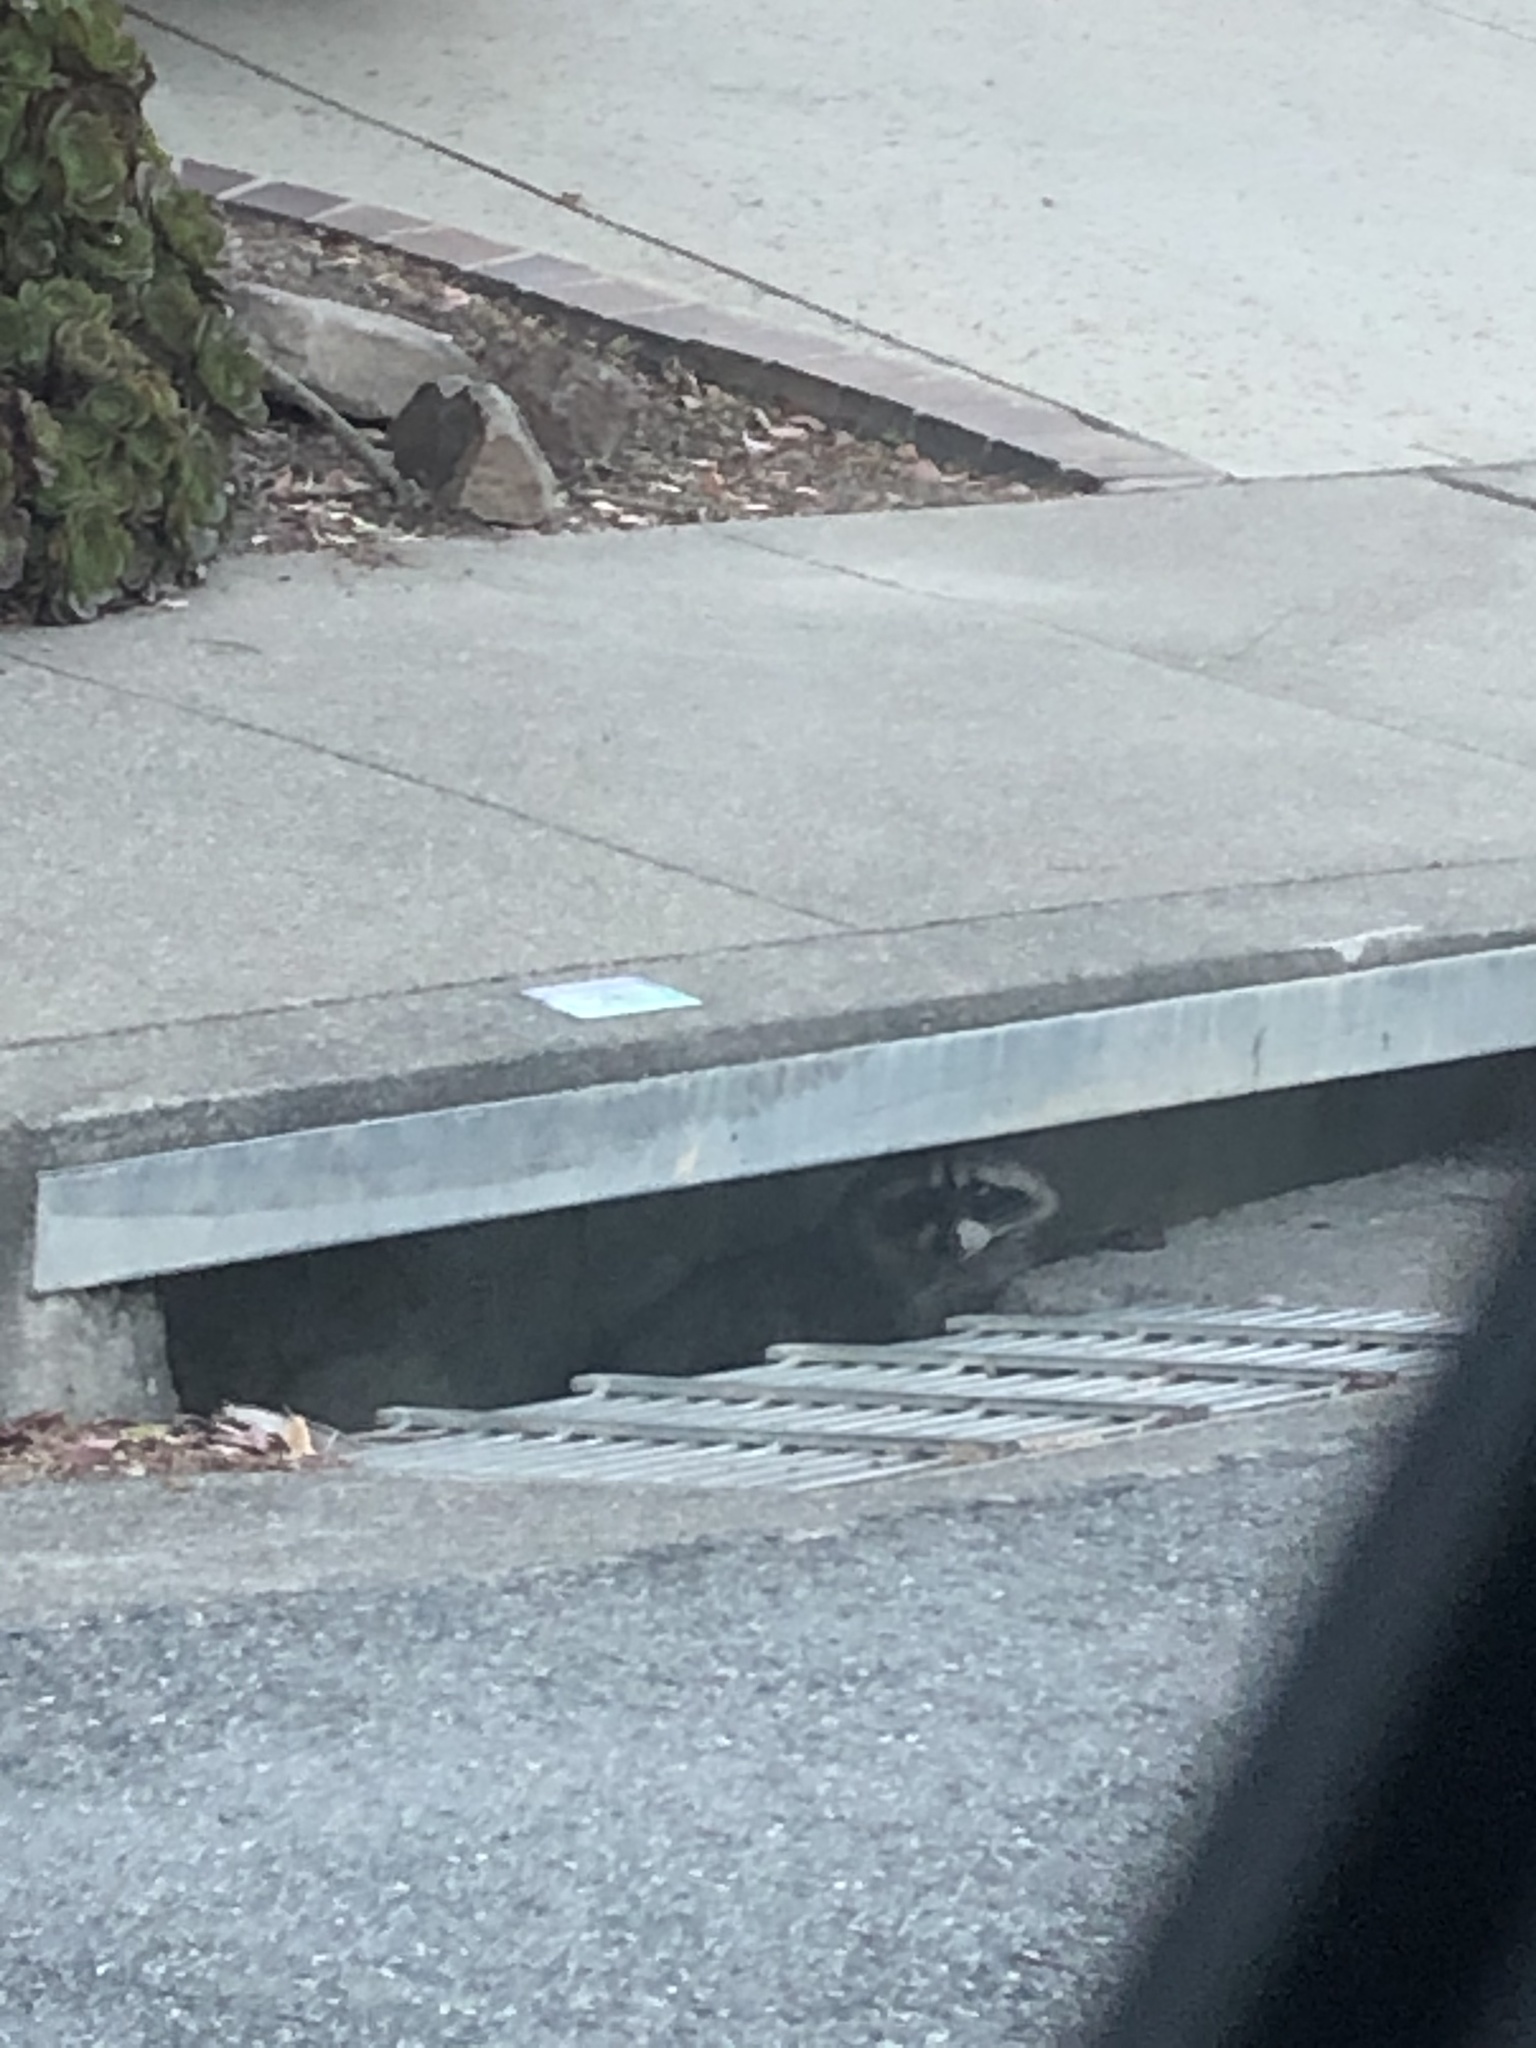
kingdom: Animalia
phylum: Chordata
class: Mammalia
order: Carnivora
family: Procyonidae
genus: Procyon
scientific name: Procyon lotor
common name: Raccoon
